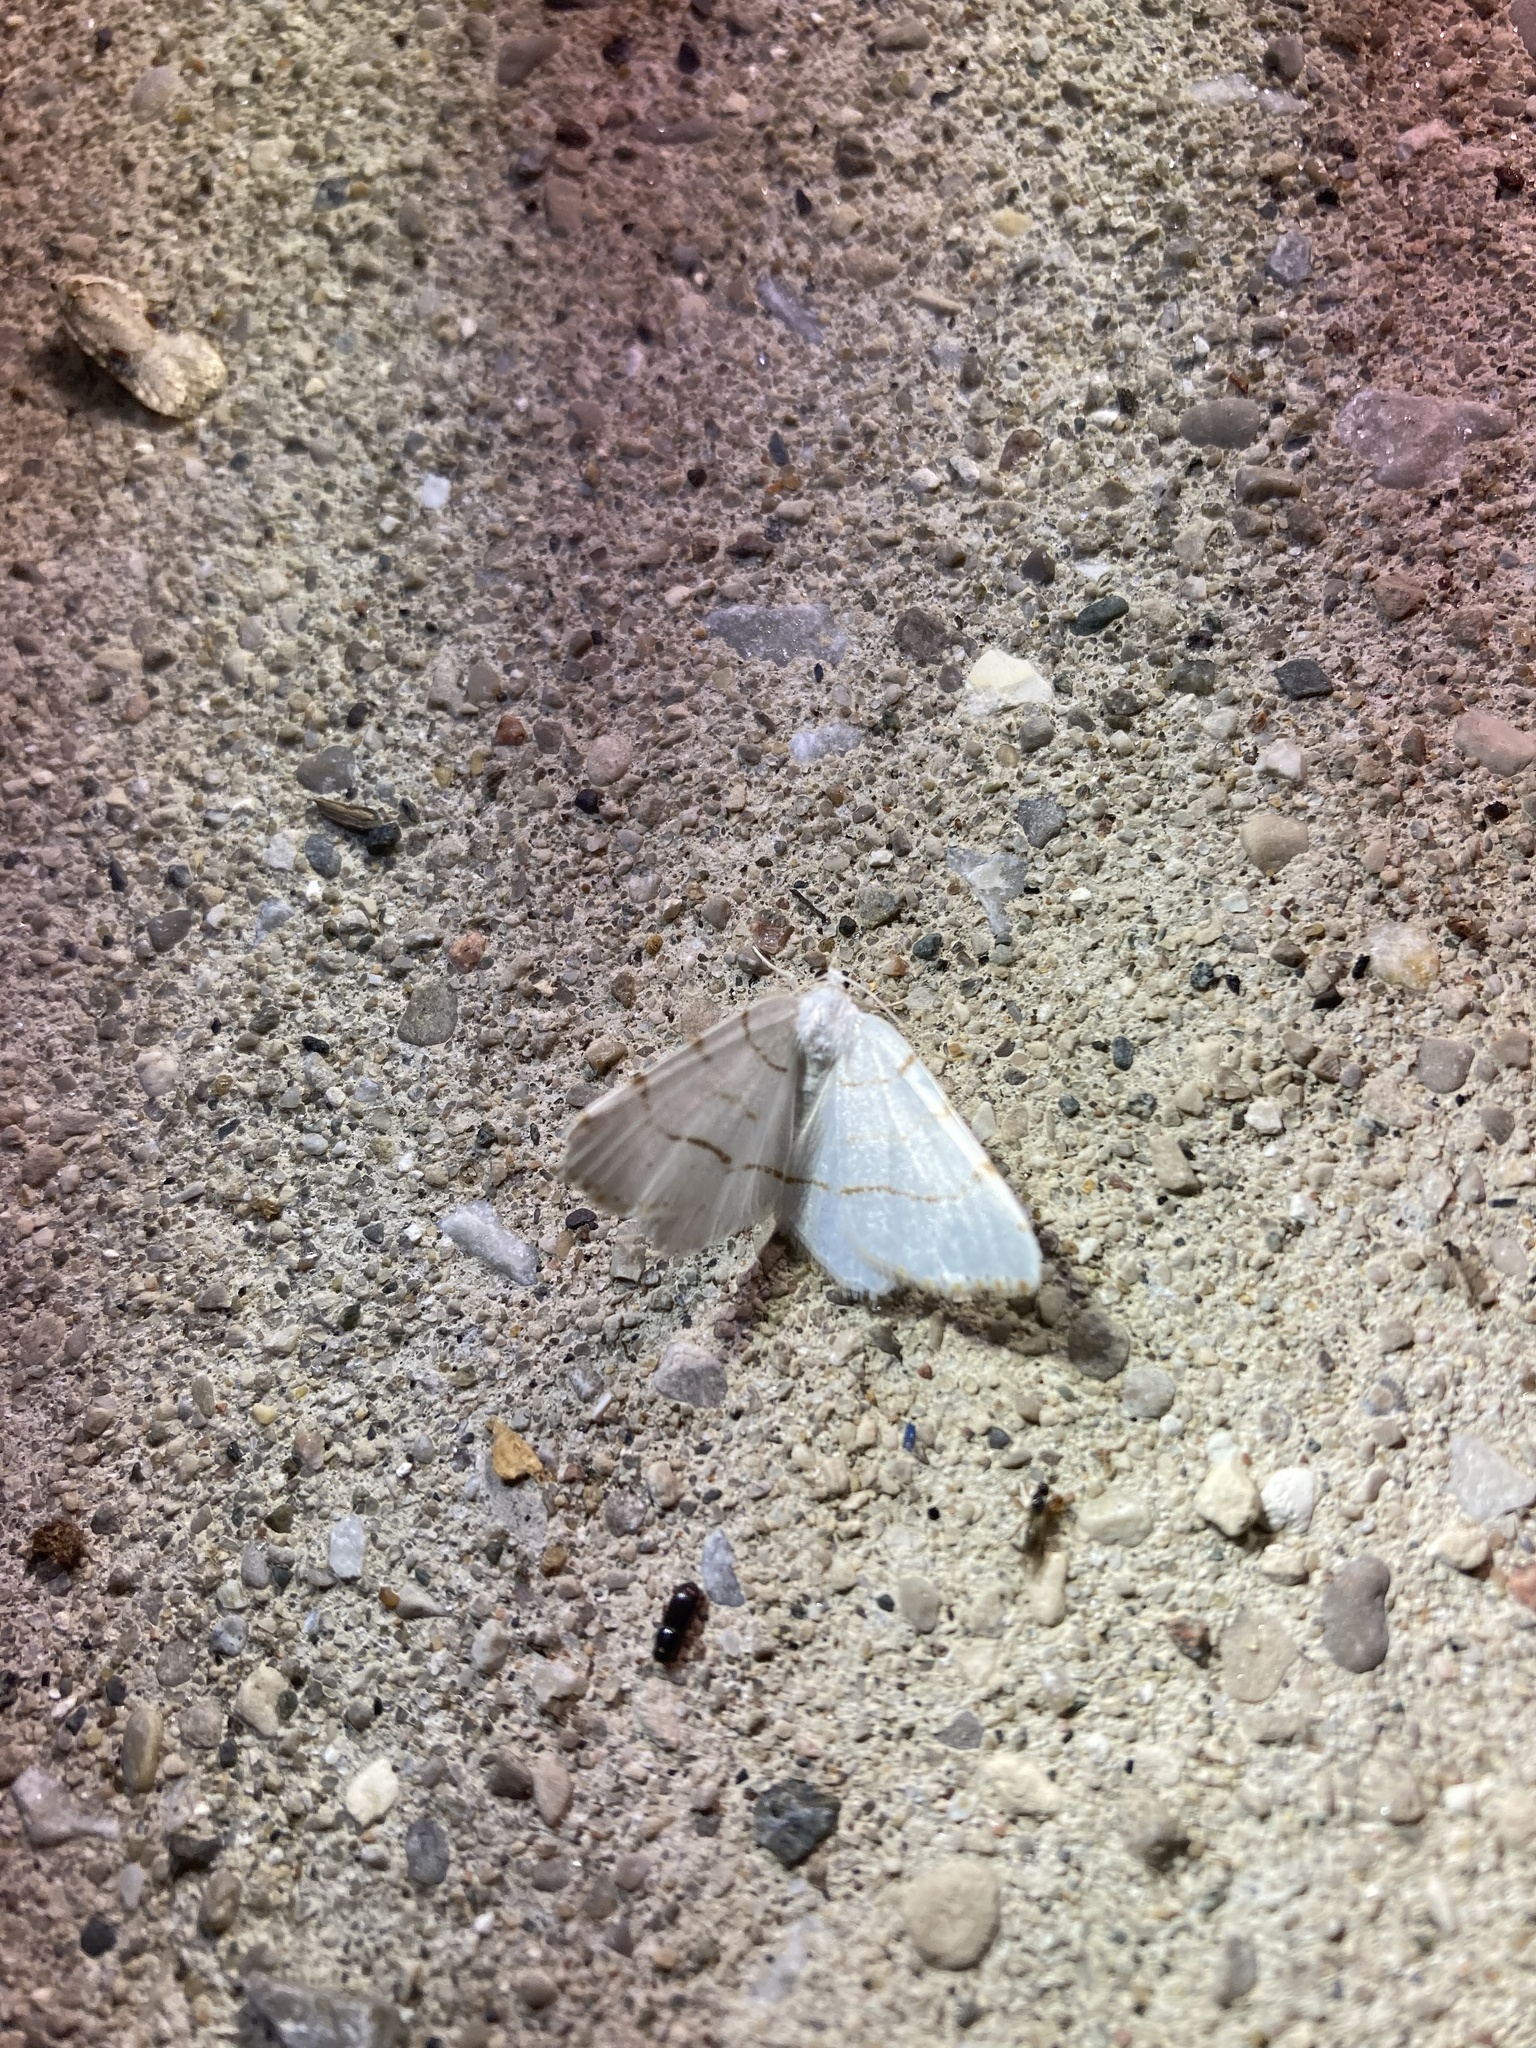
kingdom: Animalia
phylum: Arthropoda
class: Insecta
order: Lepidoptera
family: Geometridae
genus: Macaria
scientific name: Macaria pustularia
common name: Lesser maple spanworm moth
